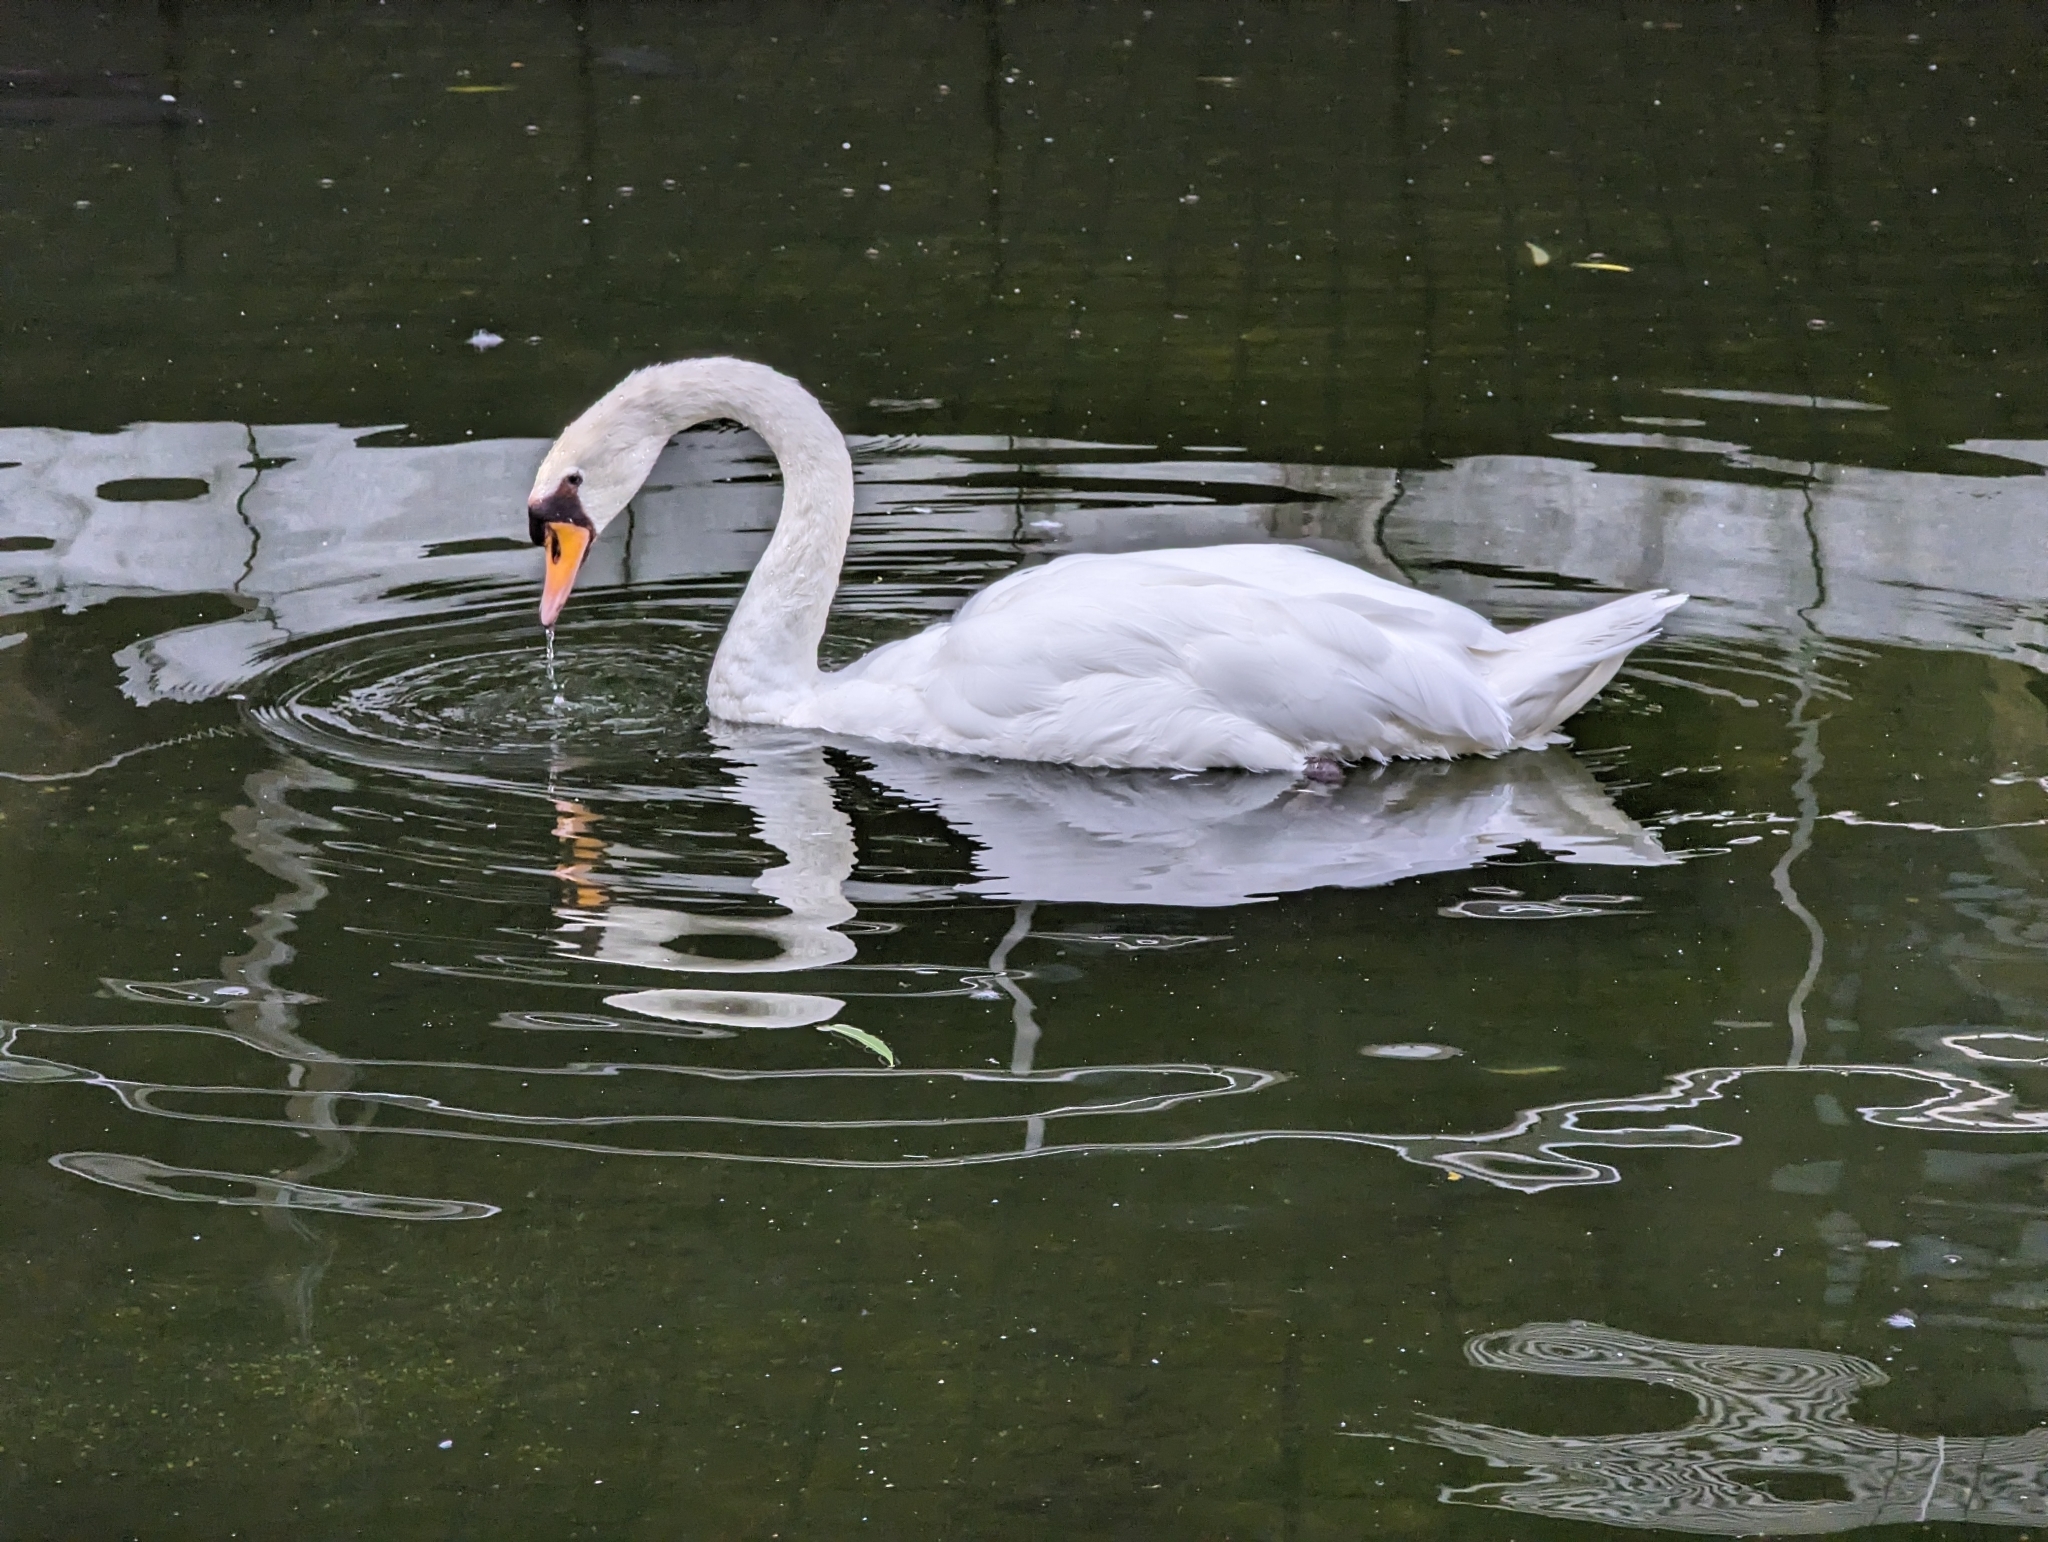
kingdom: Animalia
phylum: Chordata
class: Aves
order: Anseriformes
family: Anatidae
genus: Cygnus
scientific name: Cygnus olor
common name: Mute swan
